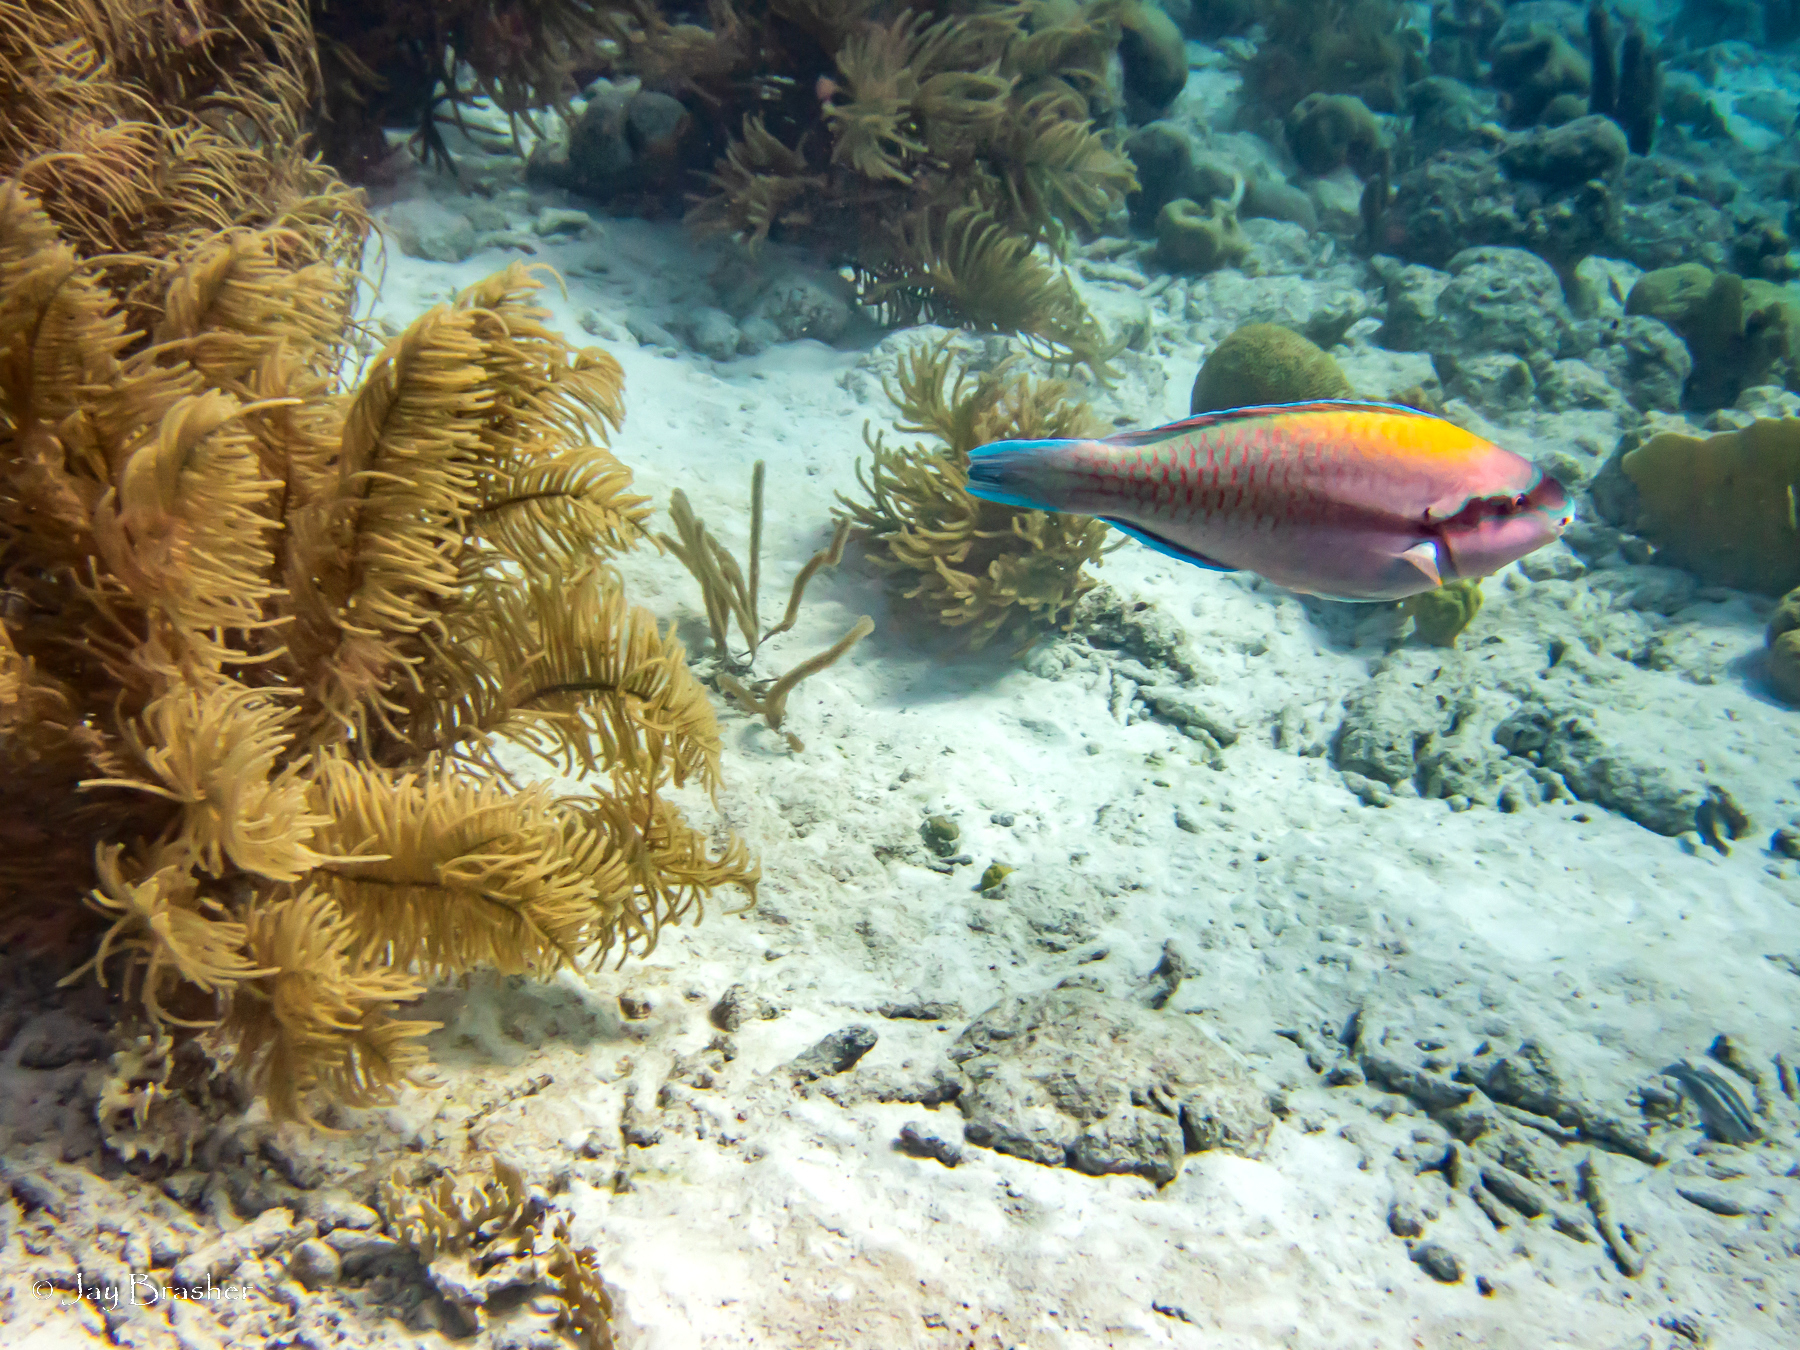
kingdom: Animalia
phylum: Chordata
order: Perciformes
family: Scaridae
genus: Scarus
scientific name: Scarus iseri
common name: Striped parrotfish
